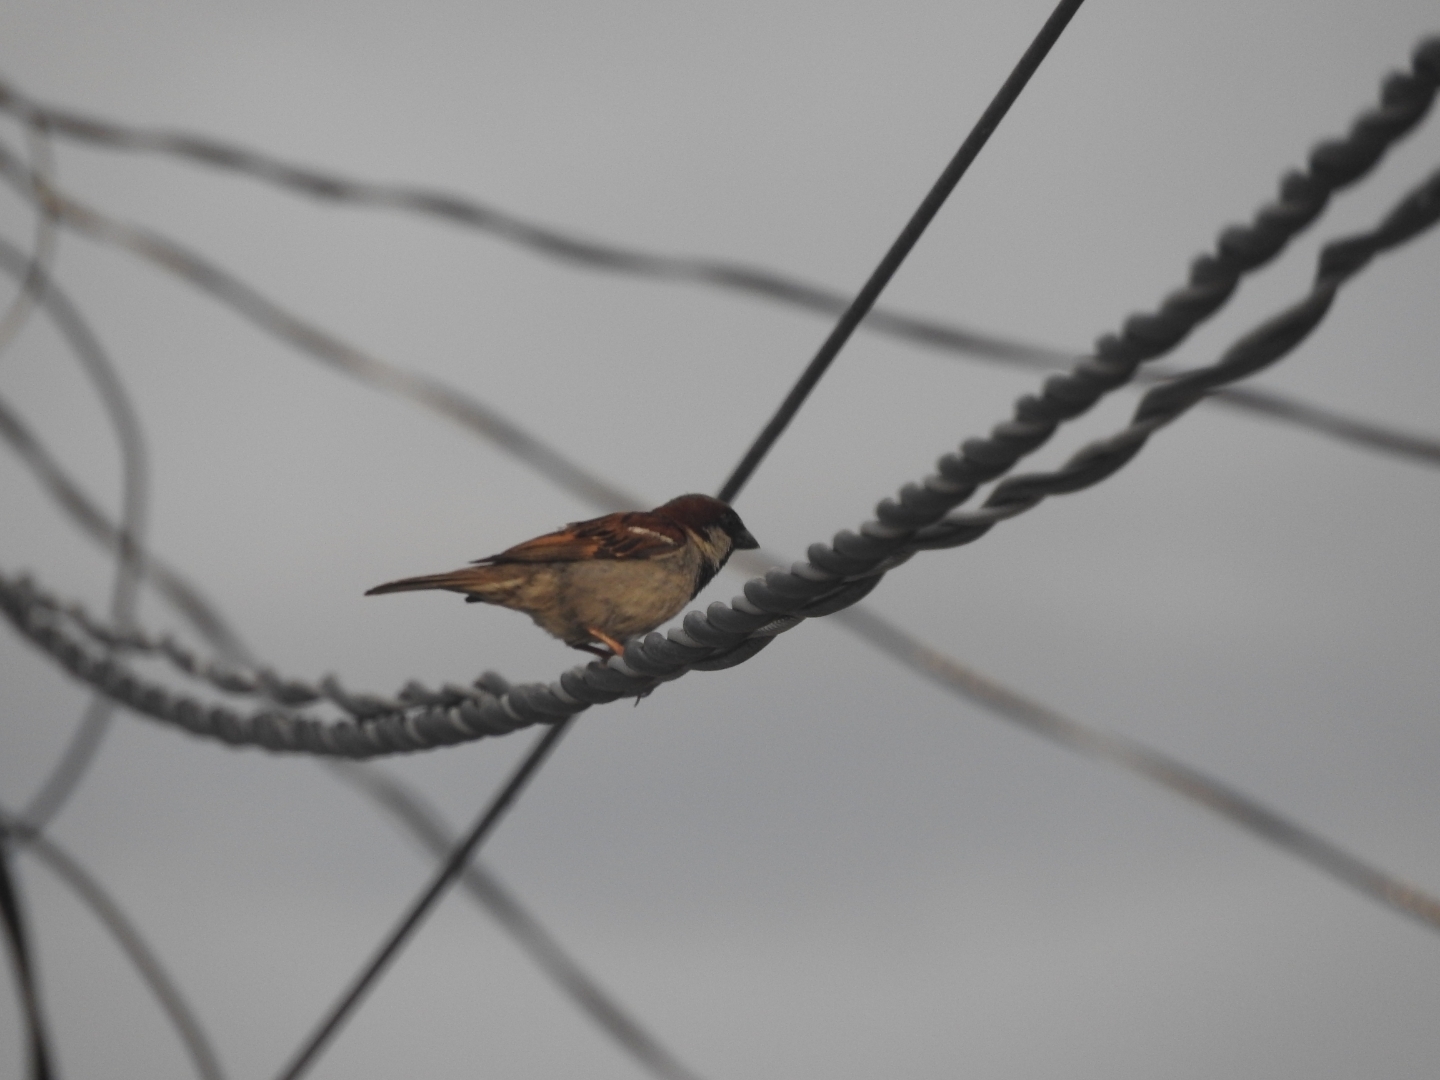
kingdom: Animalia
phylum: Chordata
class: Aves
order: Passeriformes
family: Passeridae
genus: Passer
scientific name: Passer domesticus
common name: House sparrow
